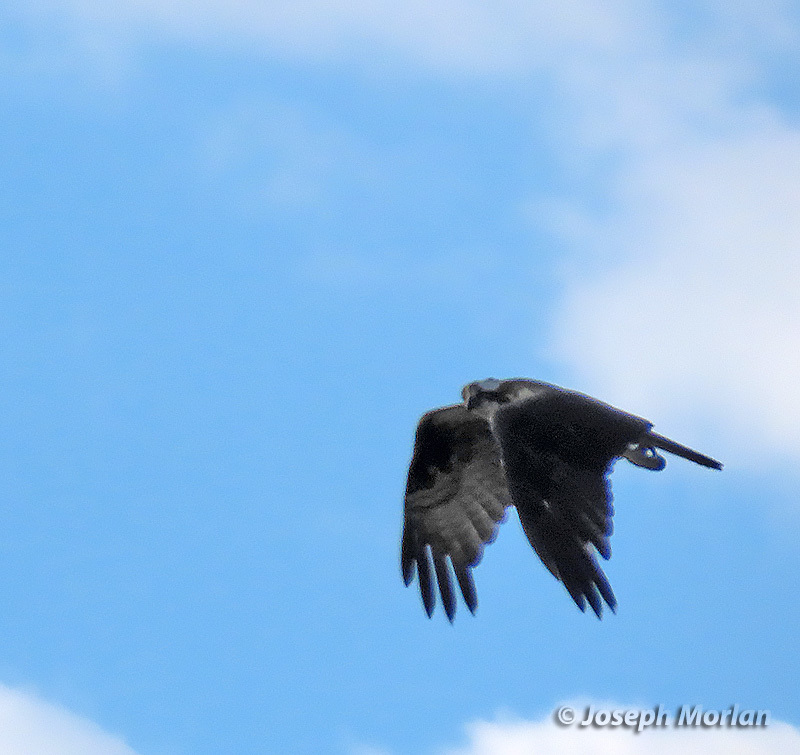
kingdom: Animalia
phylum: Chordata
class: Aves
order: Accipitriformes
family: Pandionidae
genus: Pandion
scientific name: Pandion haliaetus
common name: Osprey
